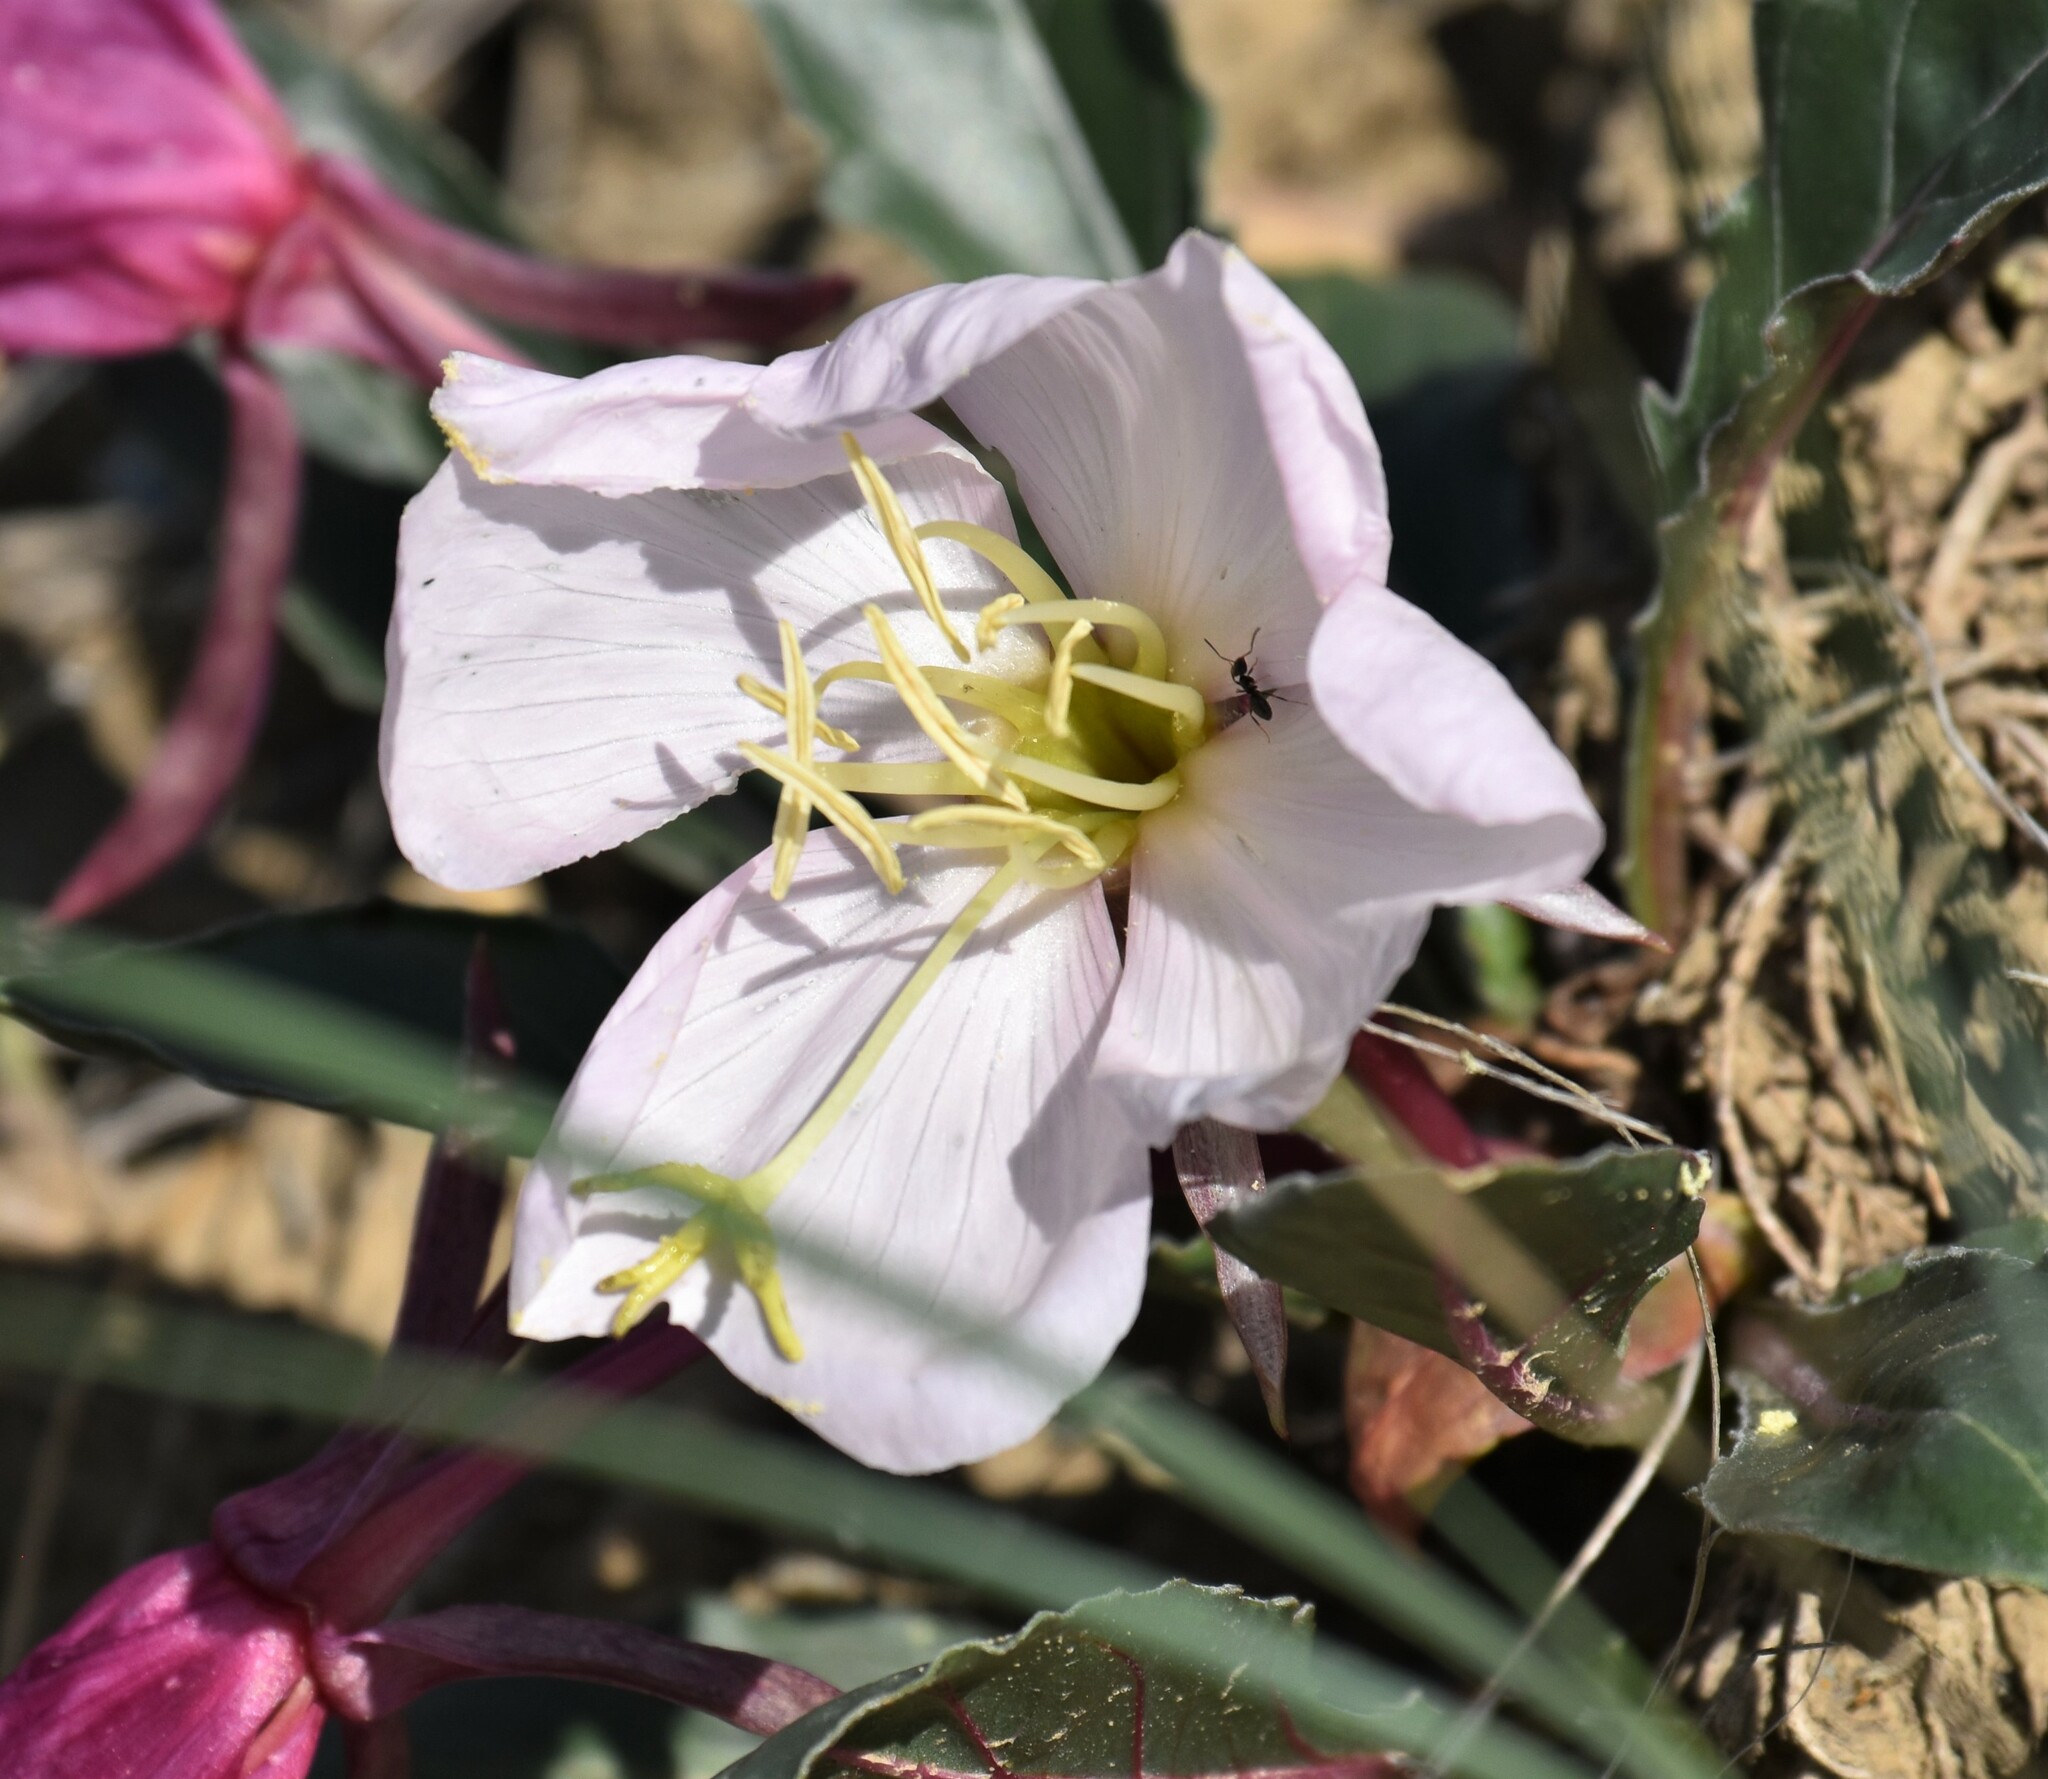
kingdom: Plantae
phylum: Tracheophyta
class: Magnoliopsida
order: Myrtales
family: Onagraceae
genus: Oenothera
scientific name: Oenothera cespitosa
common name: Tufted evening-primrose
